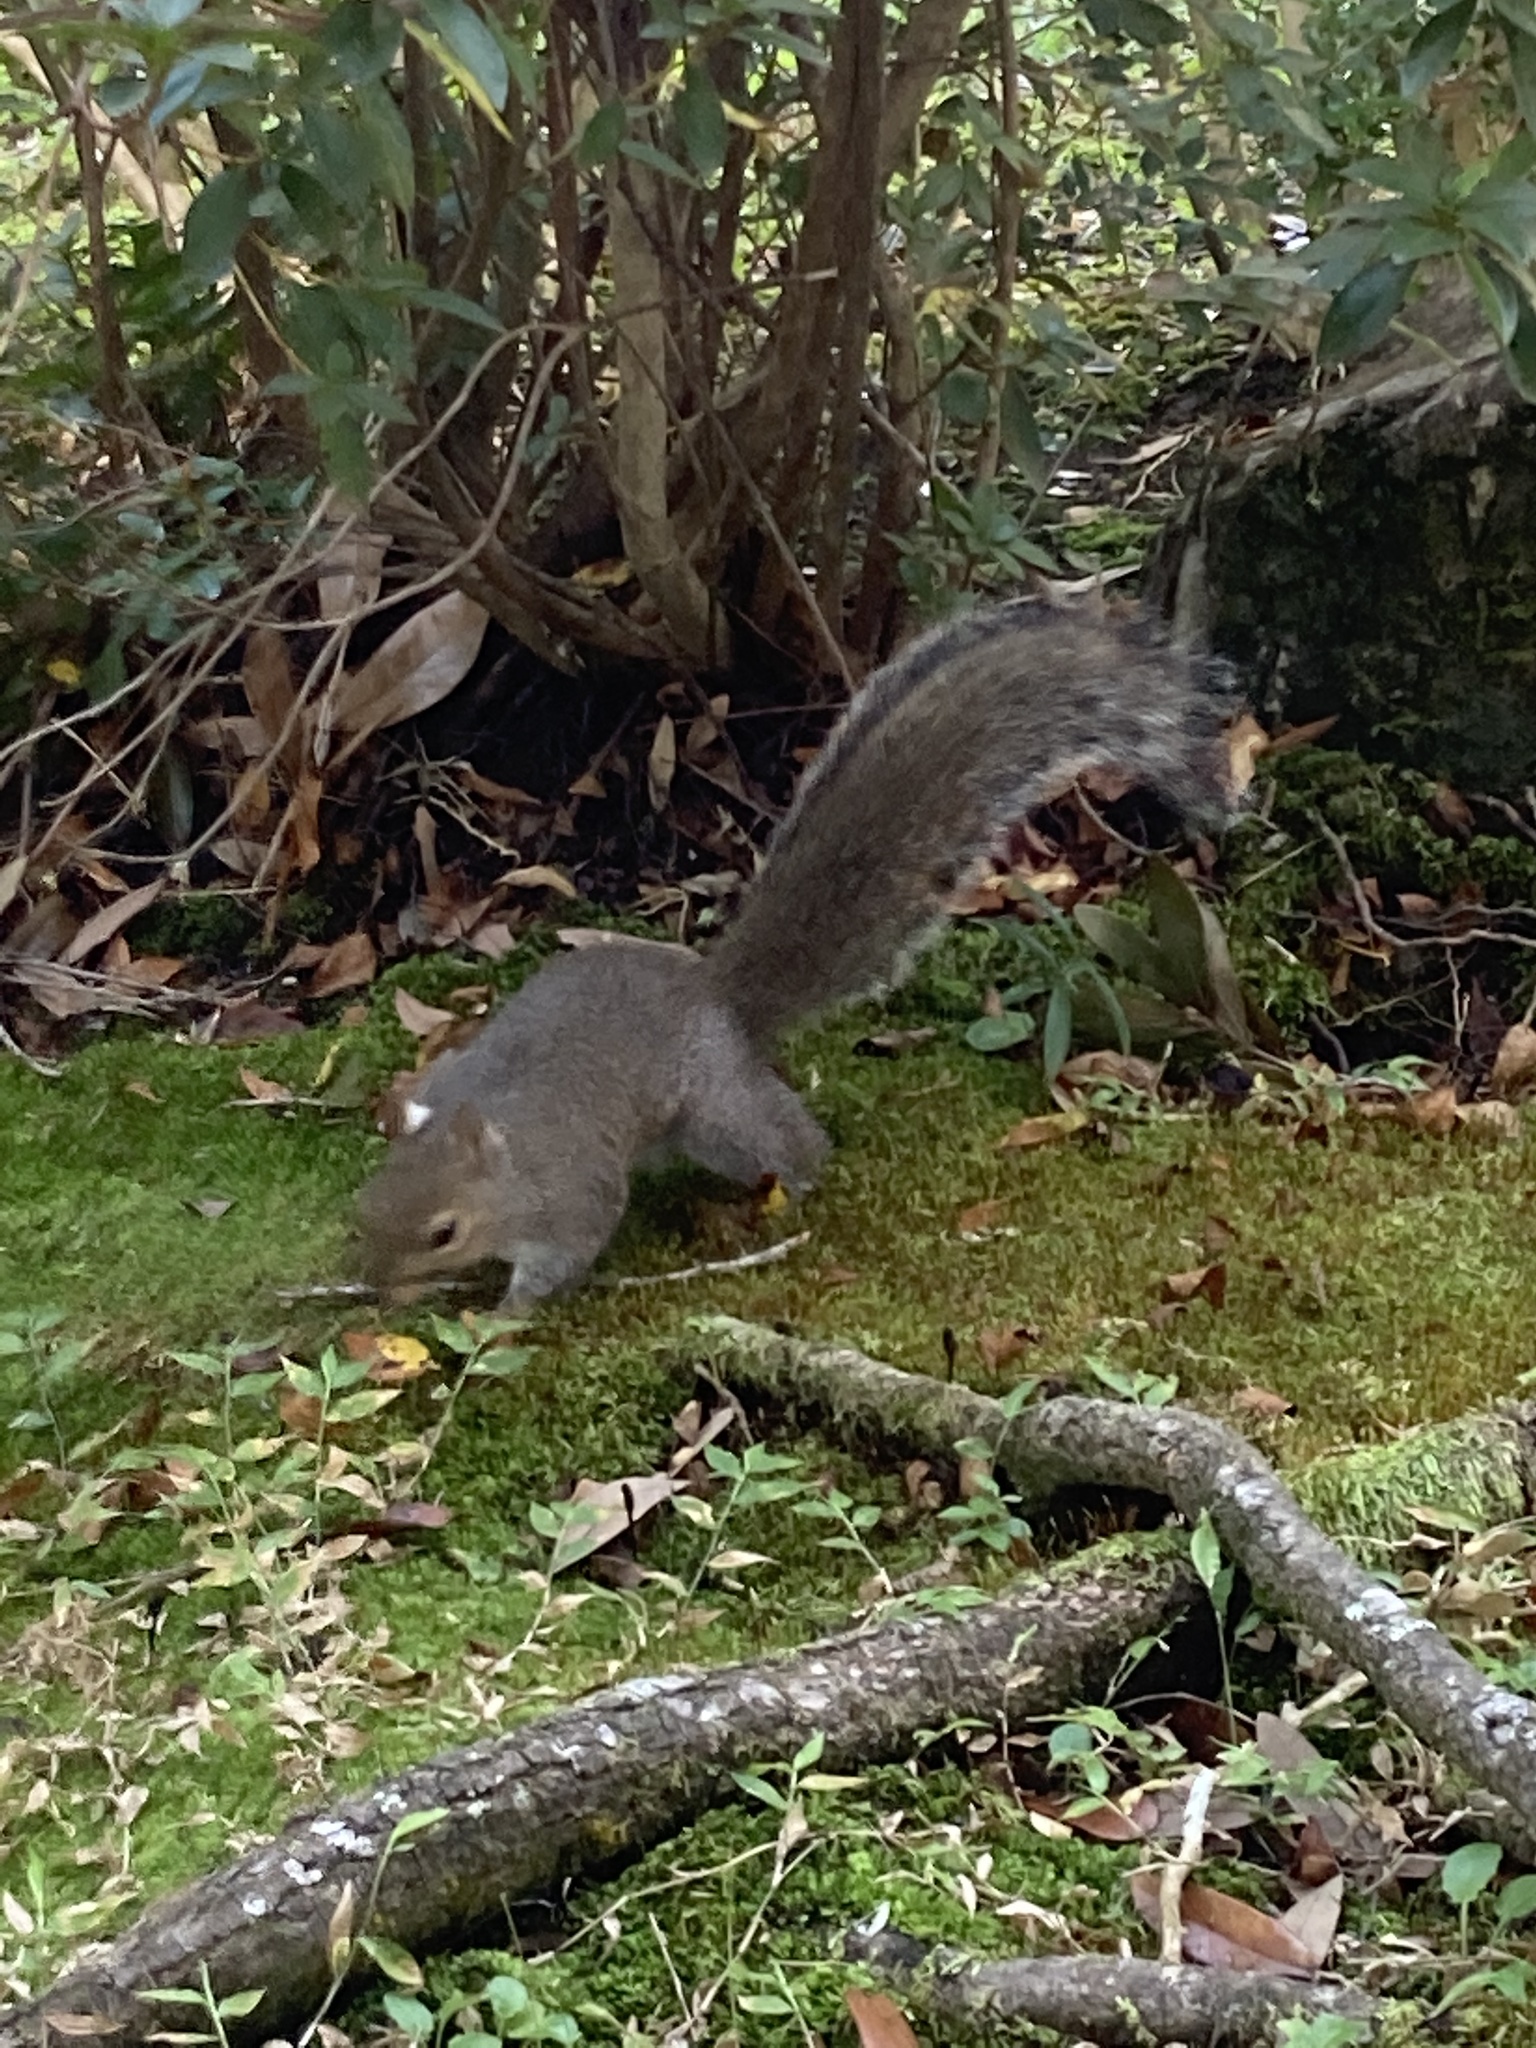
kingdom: Animalia
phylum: Chordata
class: Mammalia
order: Rodentia
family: Sciuridae
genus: Sciurus
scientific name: Sciurus carolinensis
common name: Eastern gray squirrel
